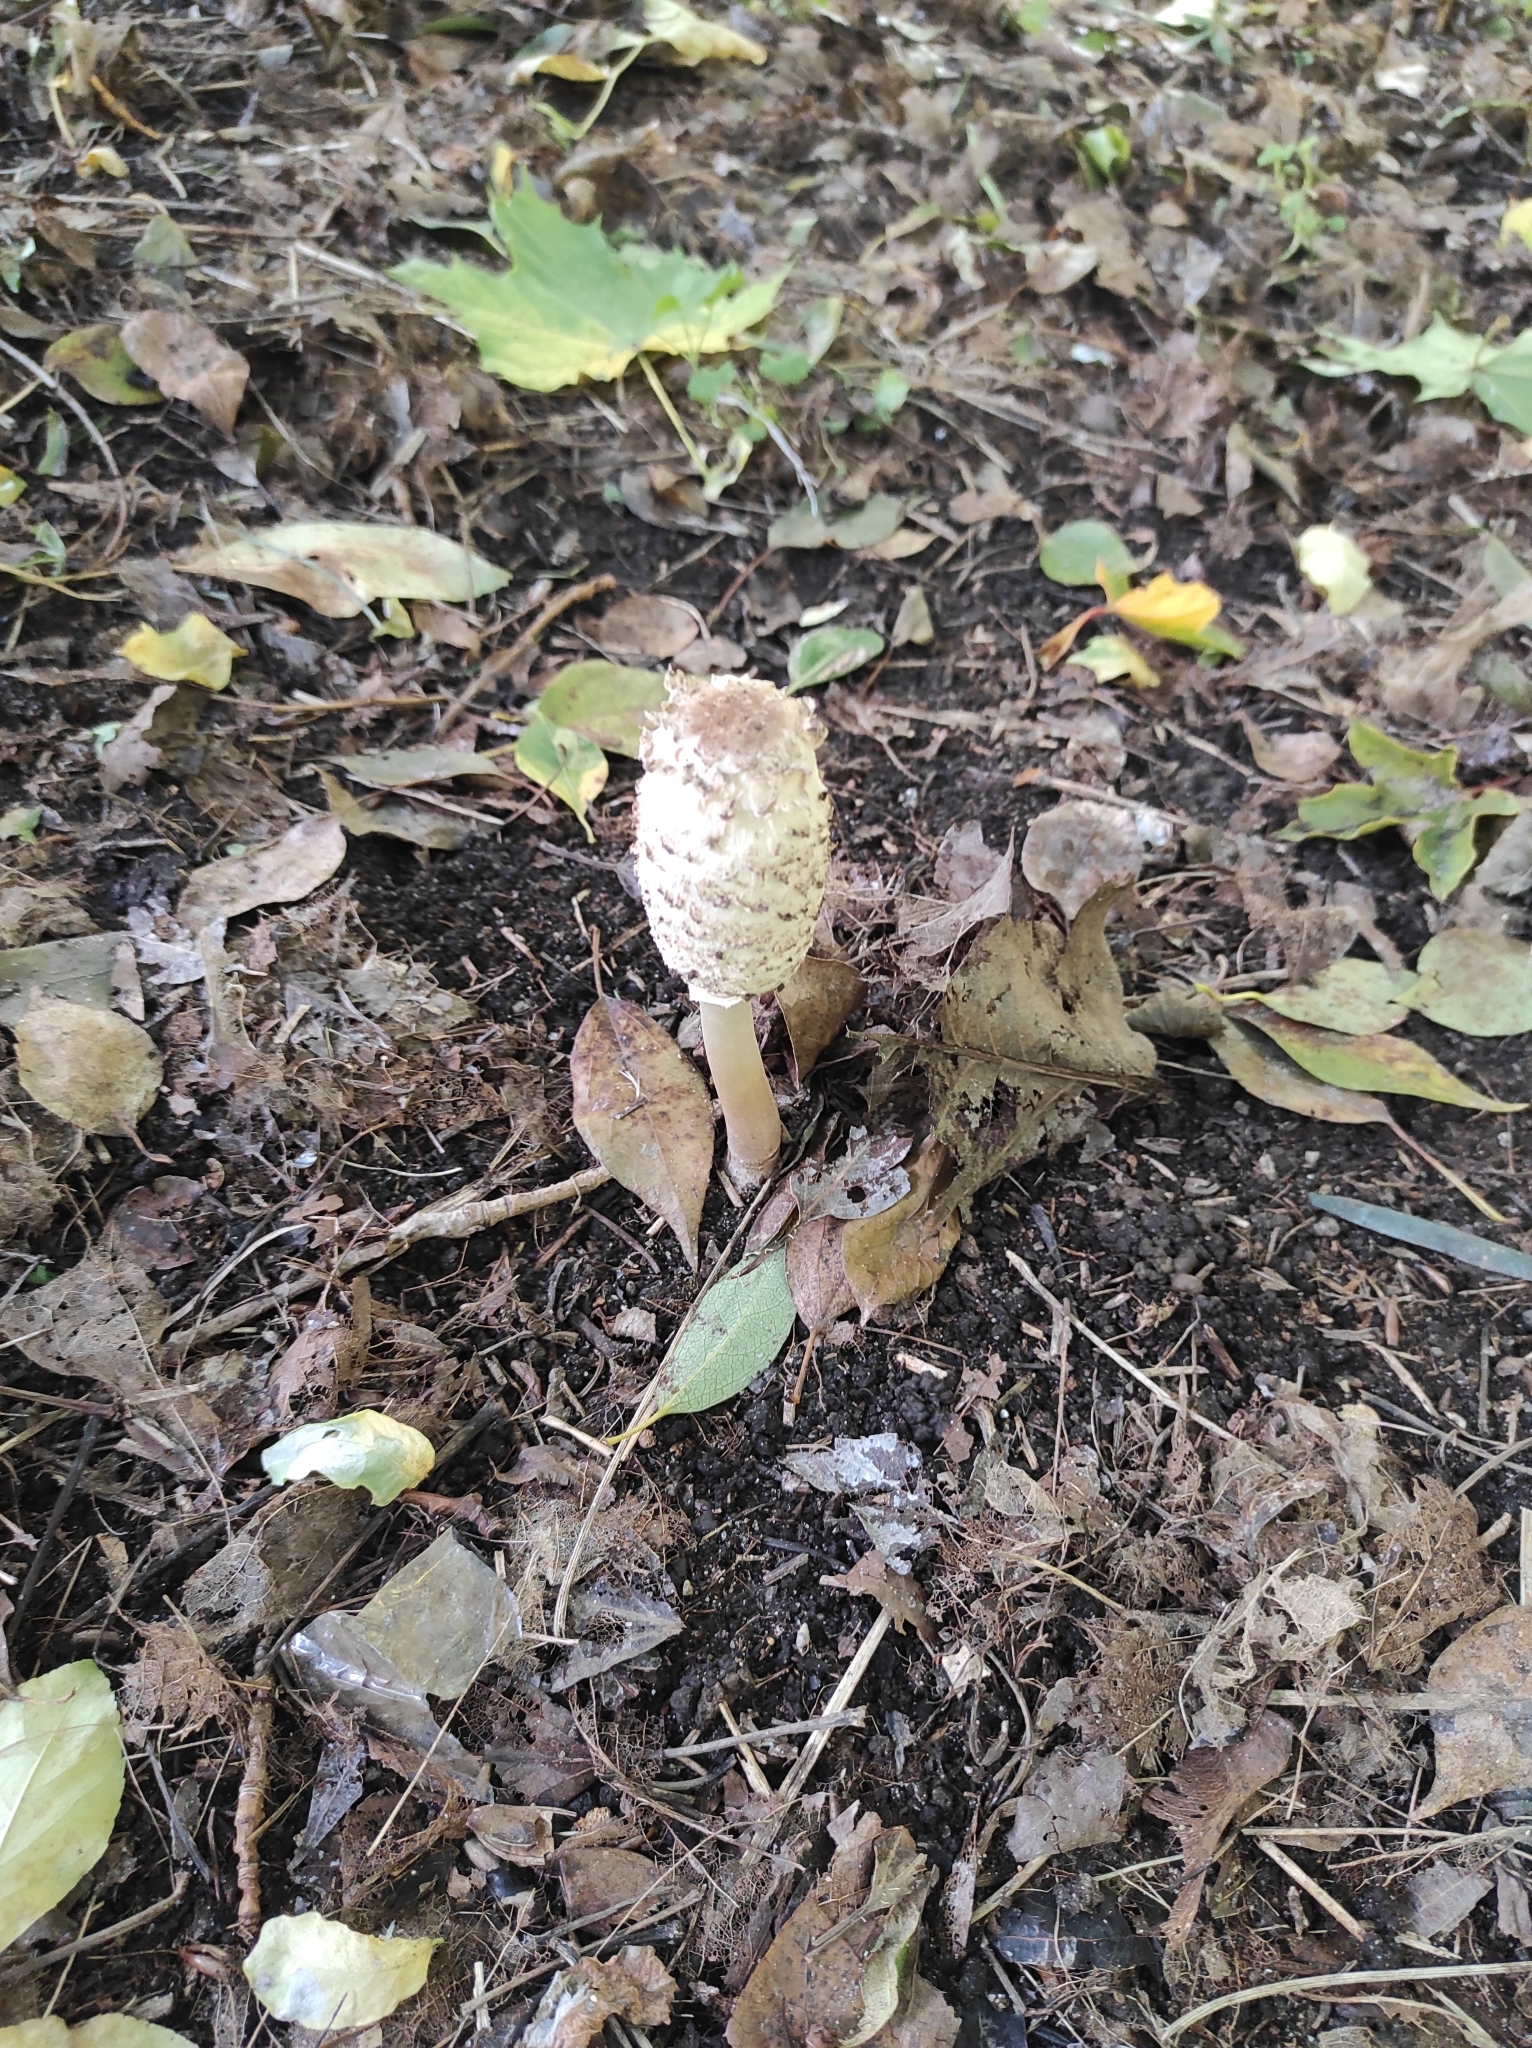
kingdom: Fungi
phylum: Basidiomycota
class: Agaricomycetes
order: Agaricales
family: Agaricaceae
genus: Coprinus
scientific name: Coprinus comatus
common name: Lawyer's wig
